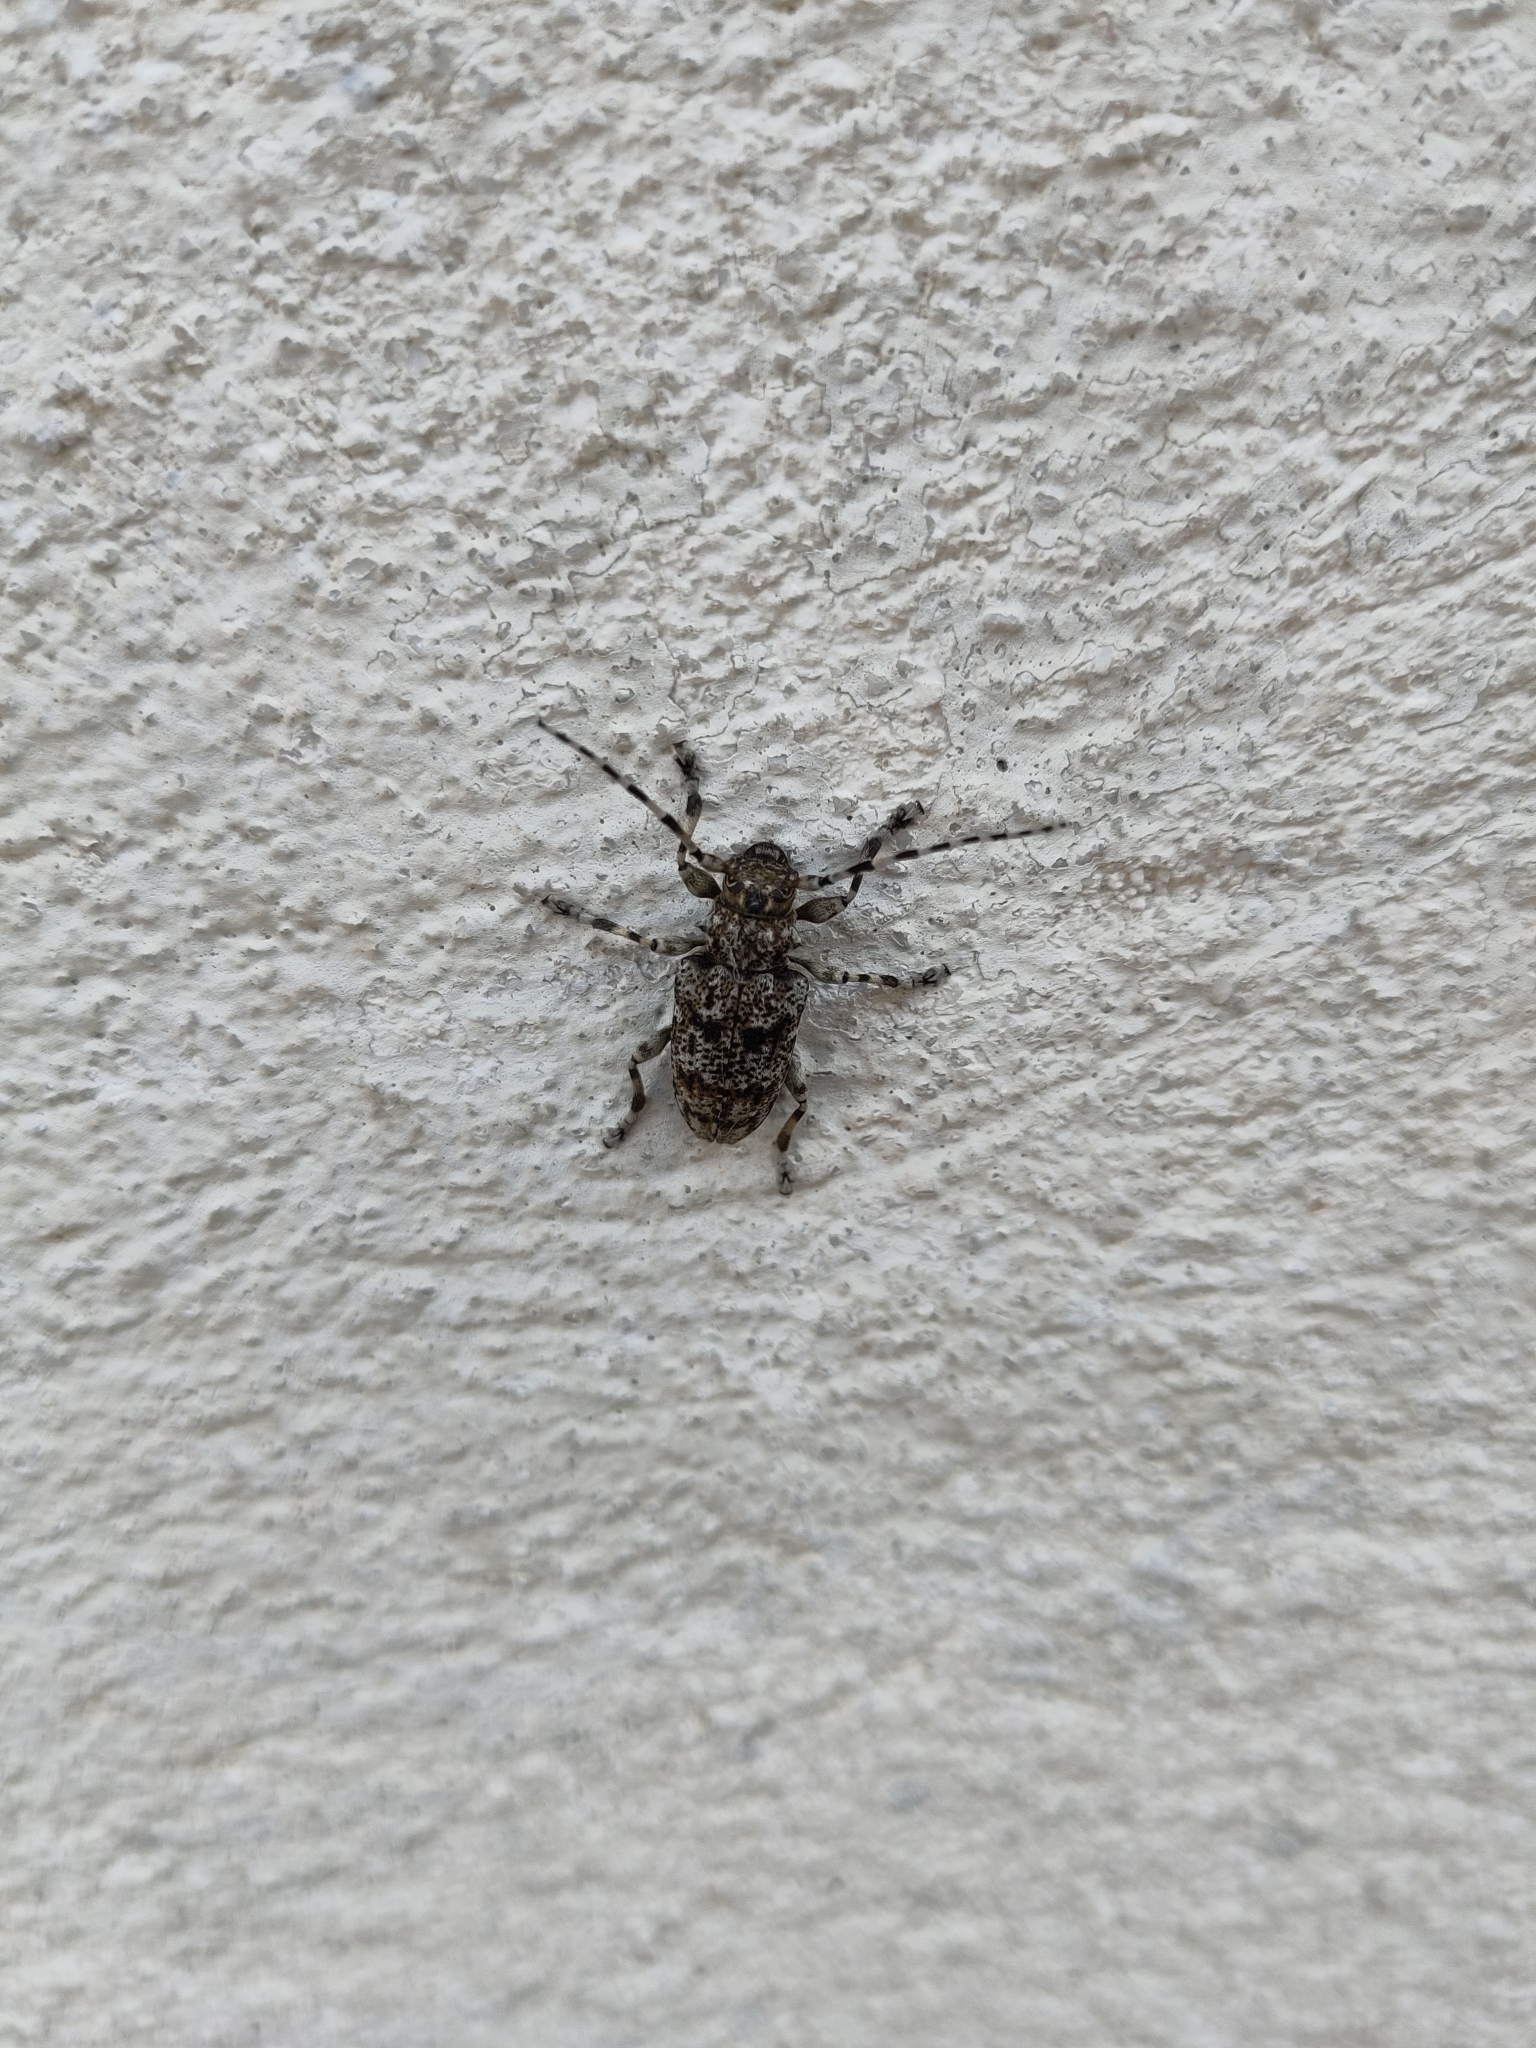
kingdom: Animalia
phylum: Arthropoda
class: Insecta
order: Coleoptera
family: Cerambycidae
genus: Aegomorphus
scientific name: Aegomorphus clavipes
